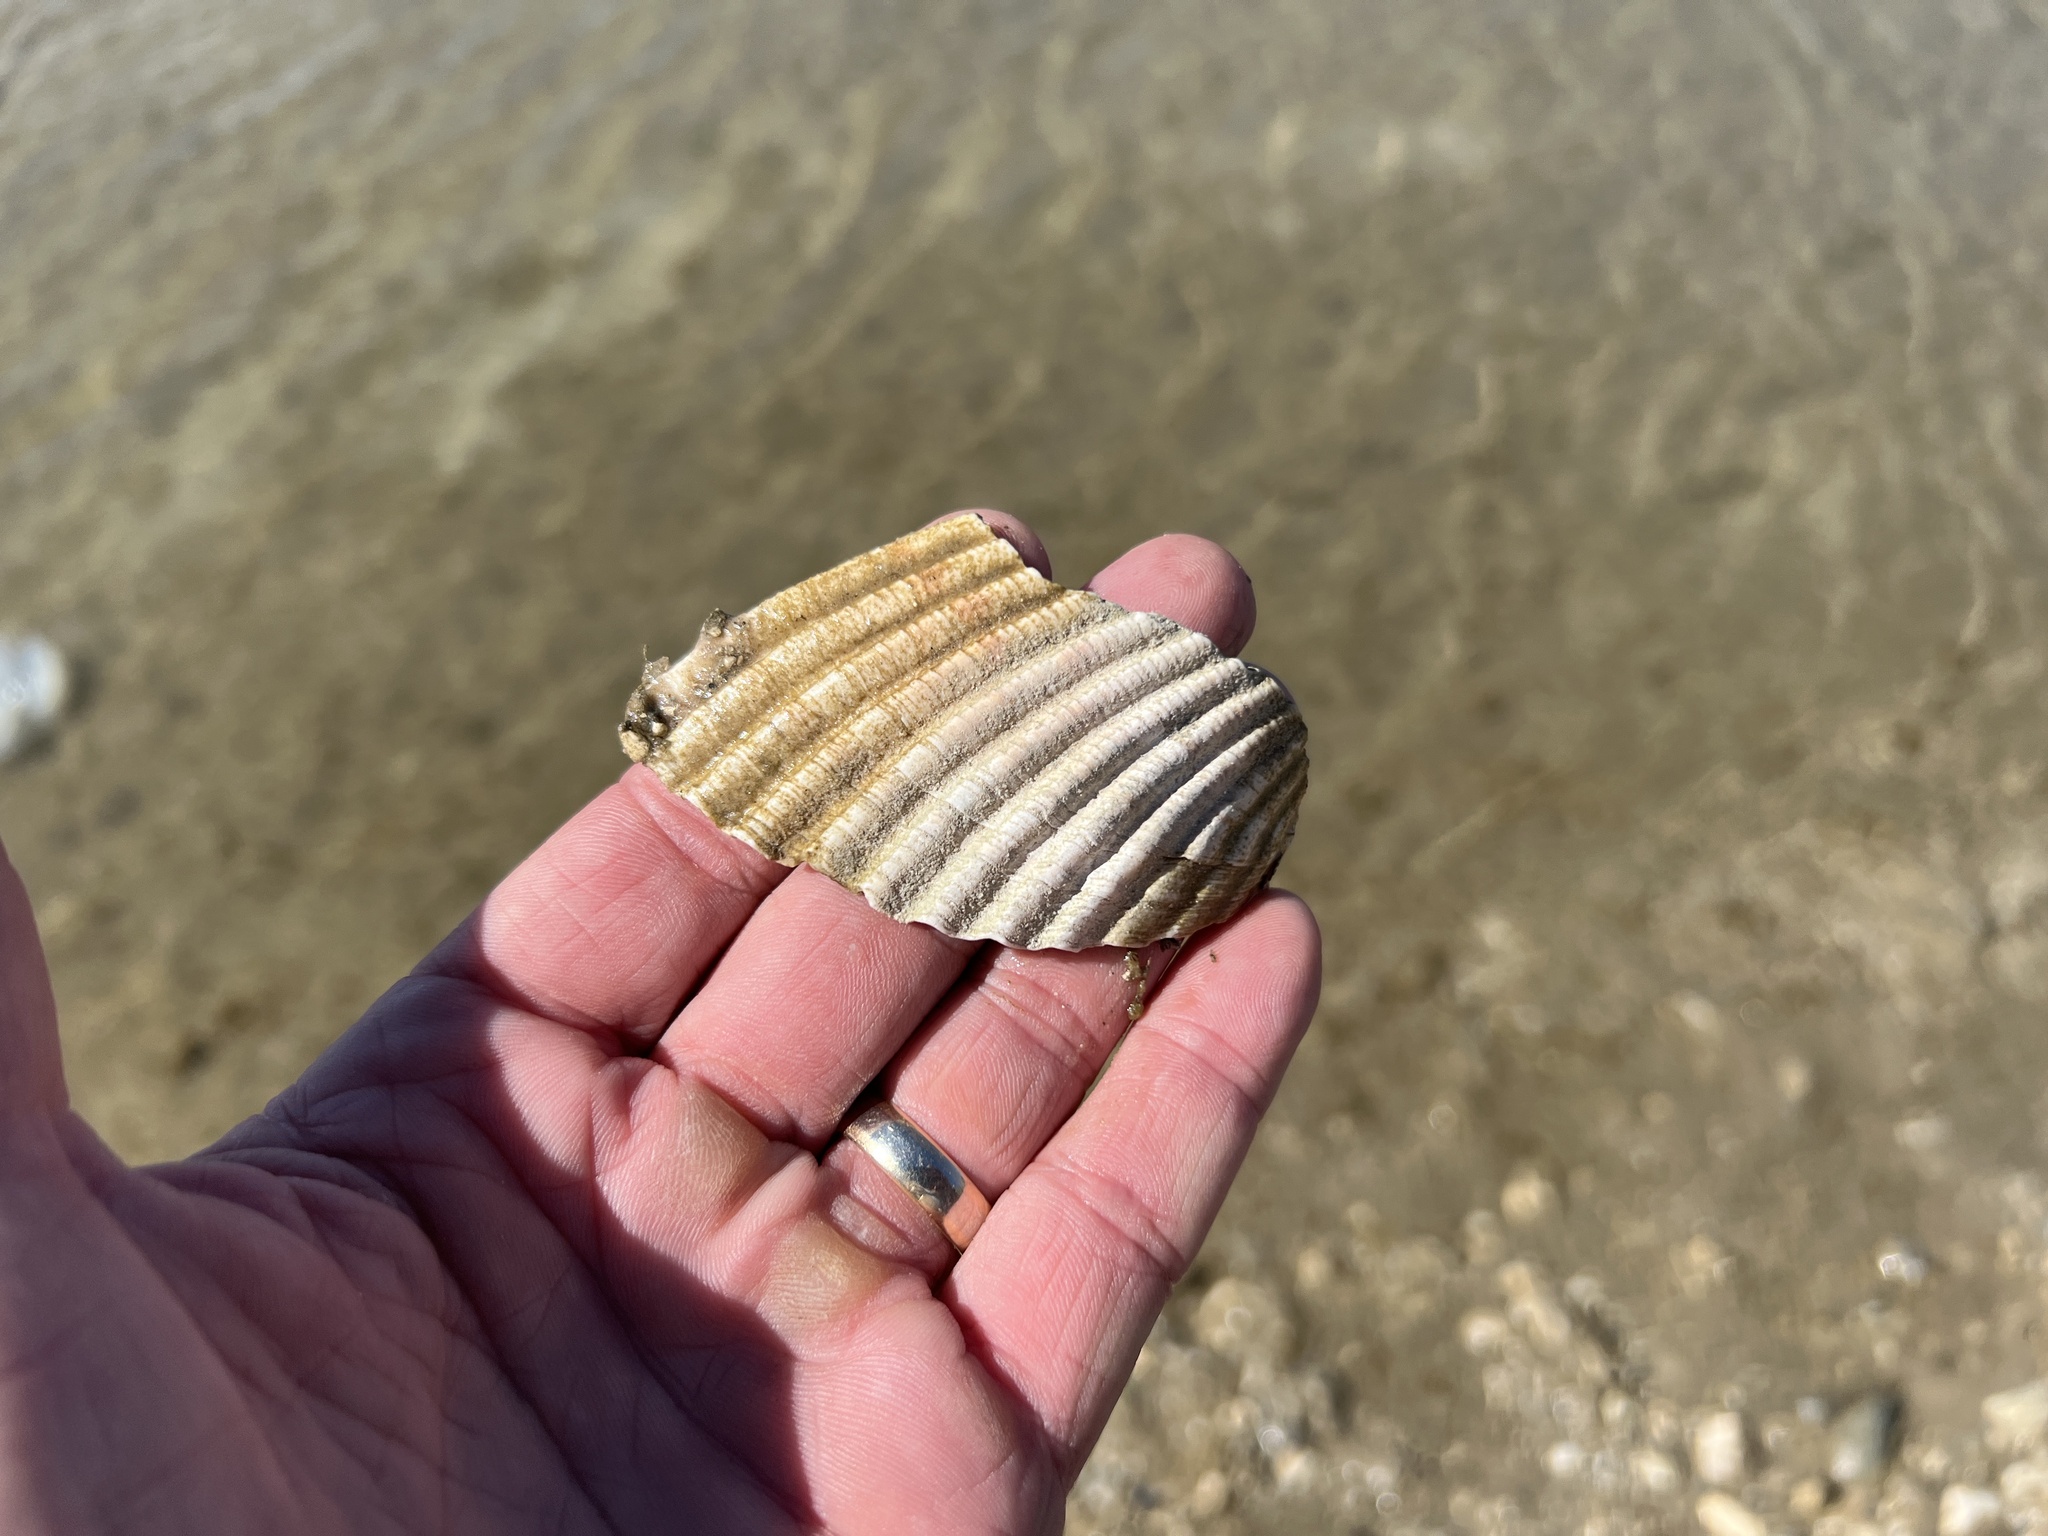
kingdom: Animalia
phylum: Mollusca
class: Bivalvia
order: Cardiida
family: Cardiidae
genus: Dinocardium
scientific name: Dinocardium robustum
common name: Atlantic giant cockle
